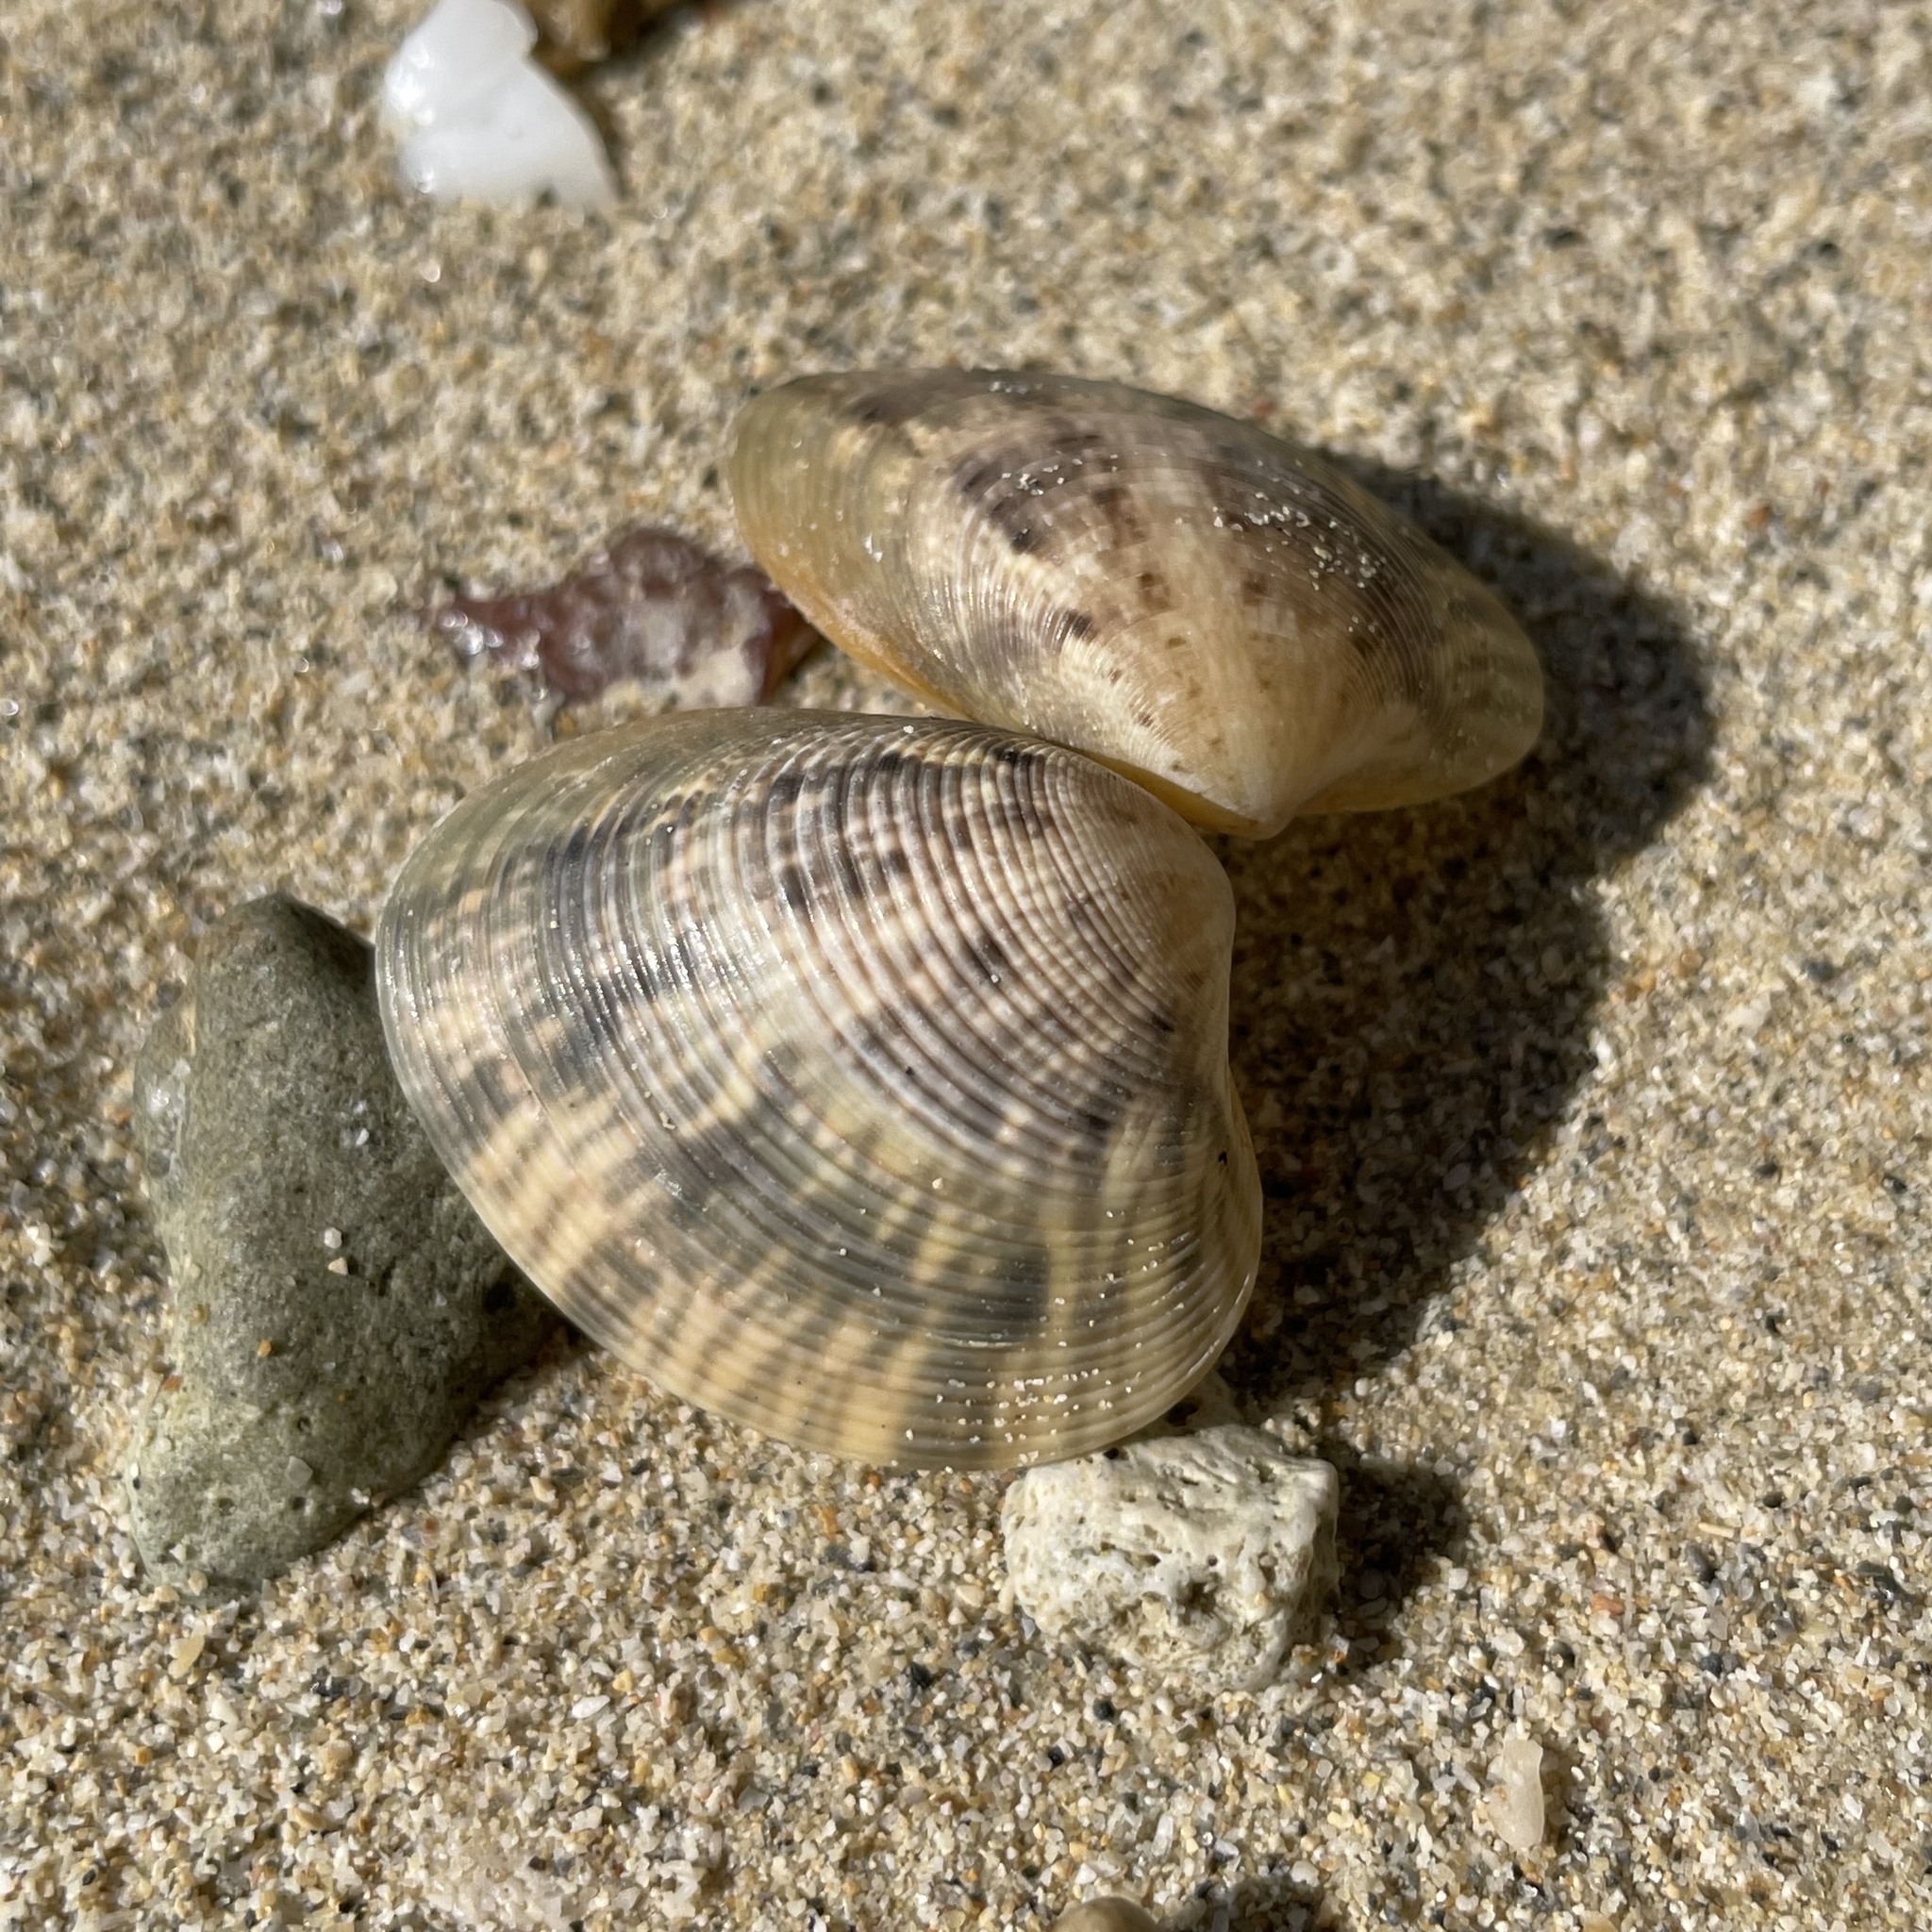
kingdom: Animalia
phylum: Mollusca
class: Bivalvia
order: Venerida
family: Veneridae
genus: Marcia
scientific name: Marcia hiantina
